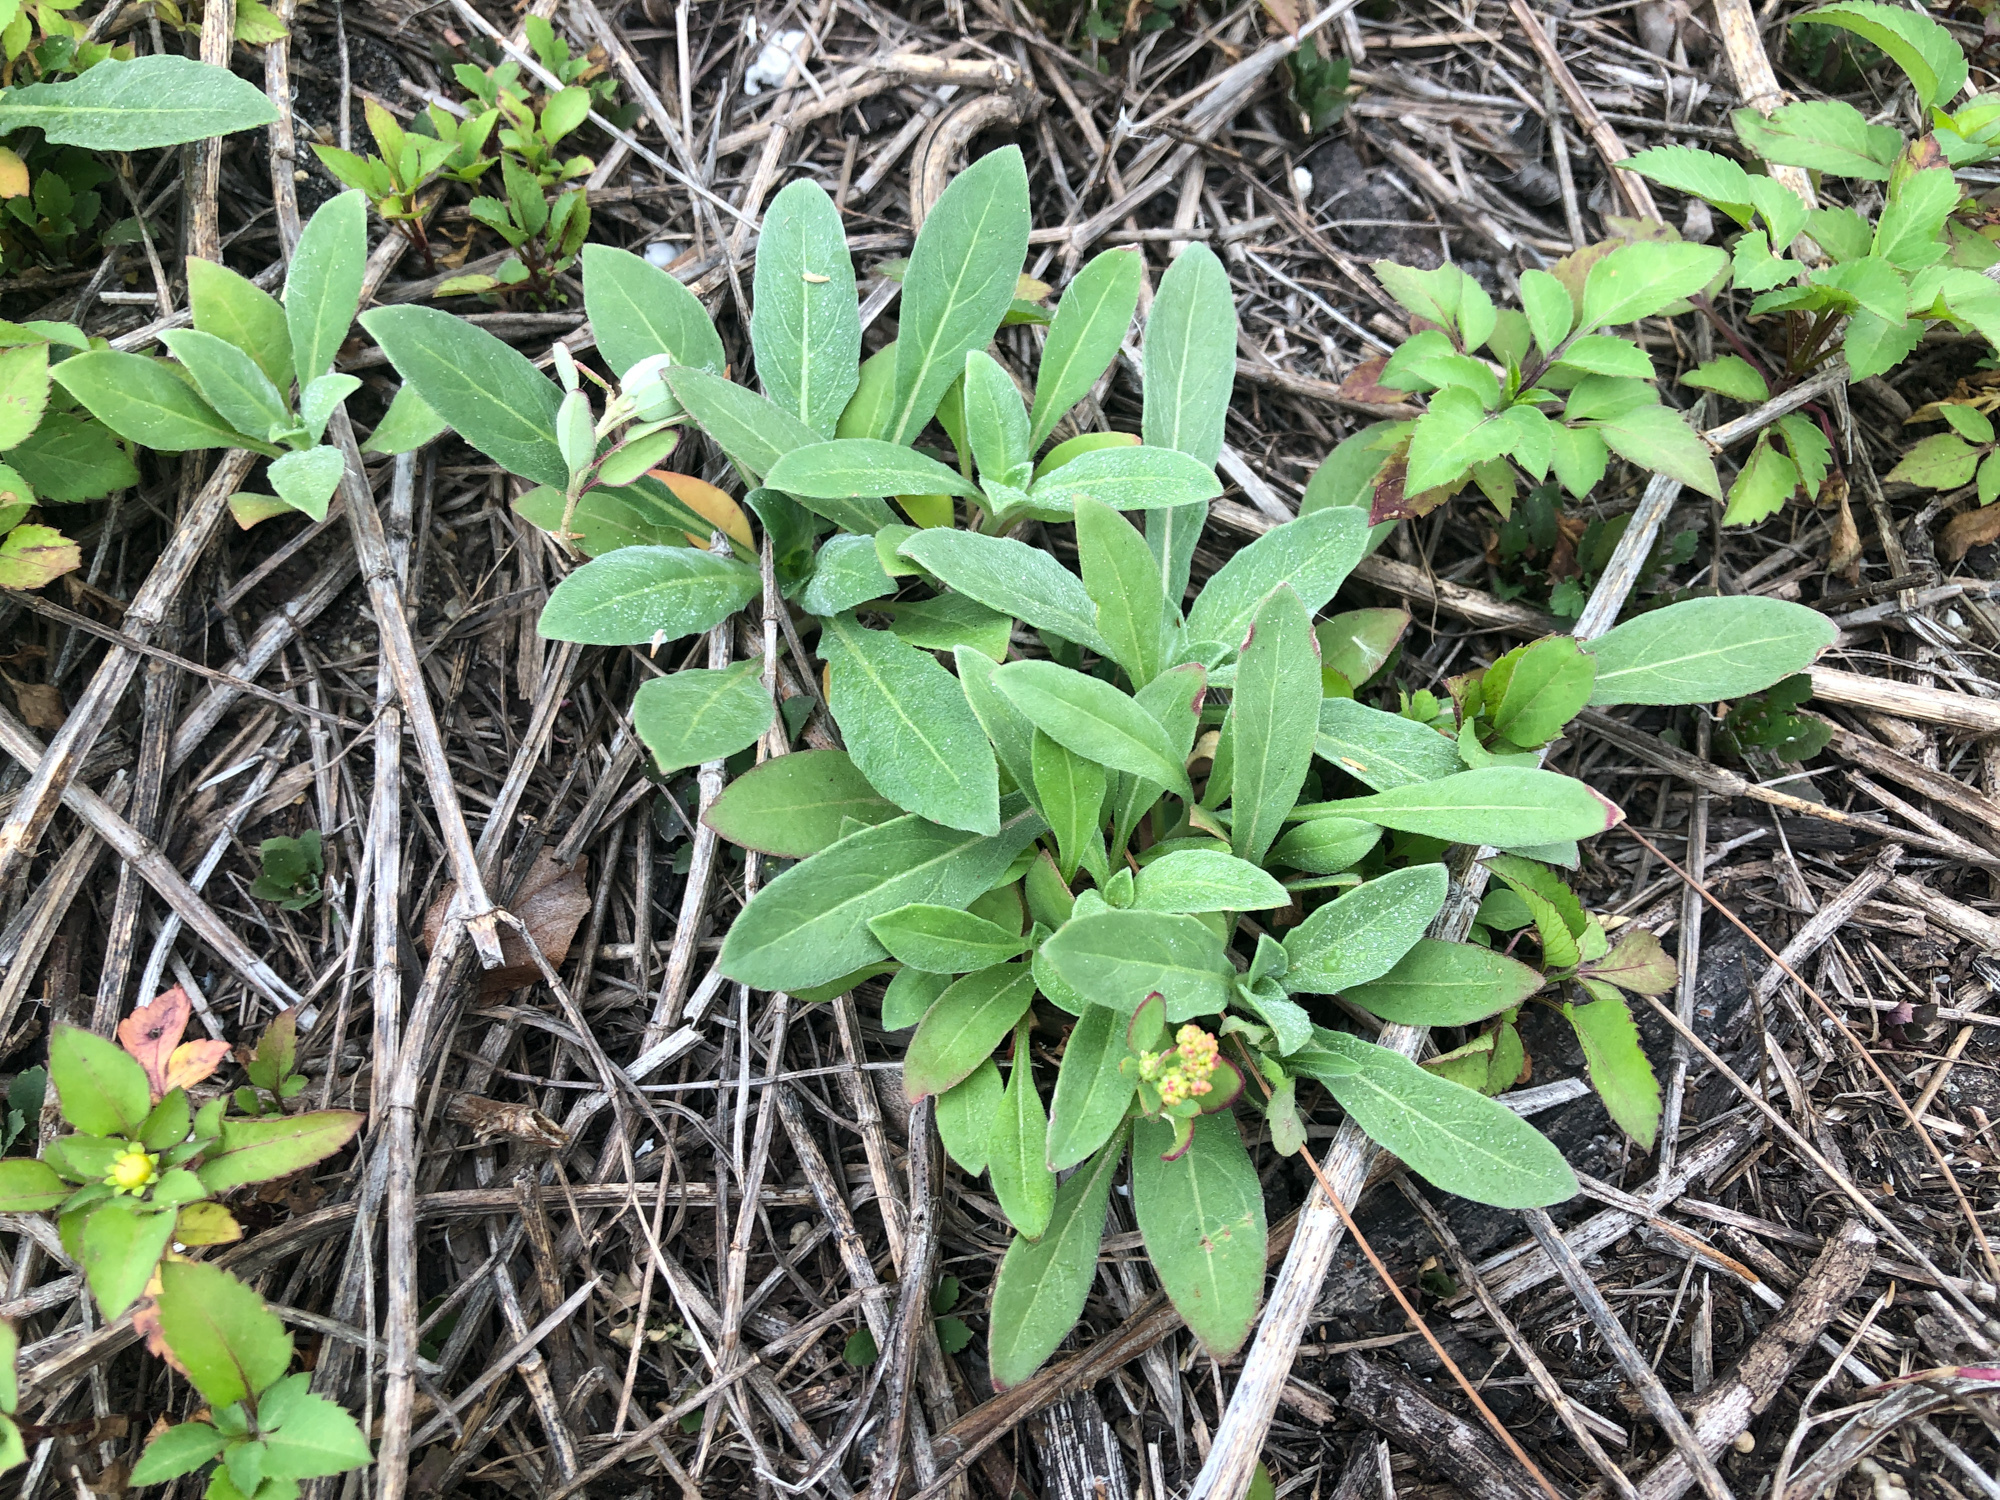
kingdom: Plantae
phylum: Tracheophyta
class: Magnoliopsida
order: Myrtales
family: Onagraceae
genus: Oenothera
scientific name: Oenothera drummondii
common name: Beach evening-primrose
